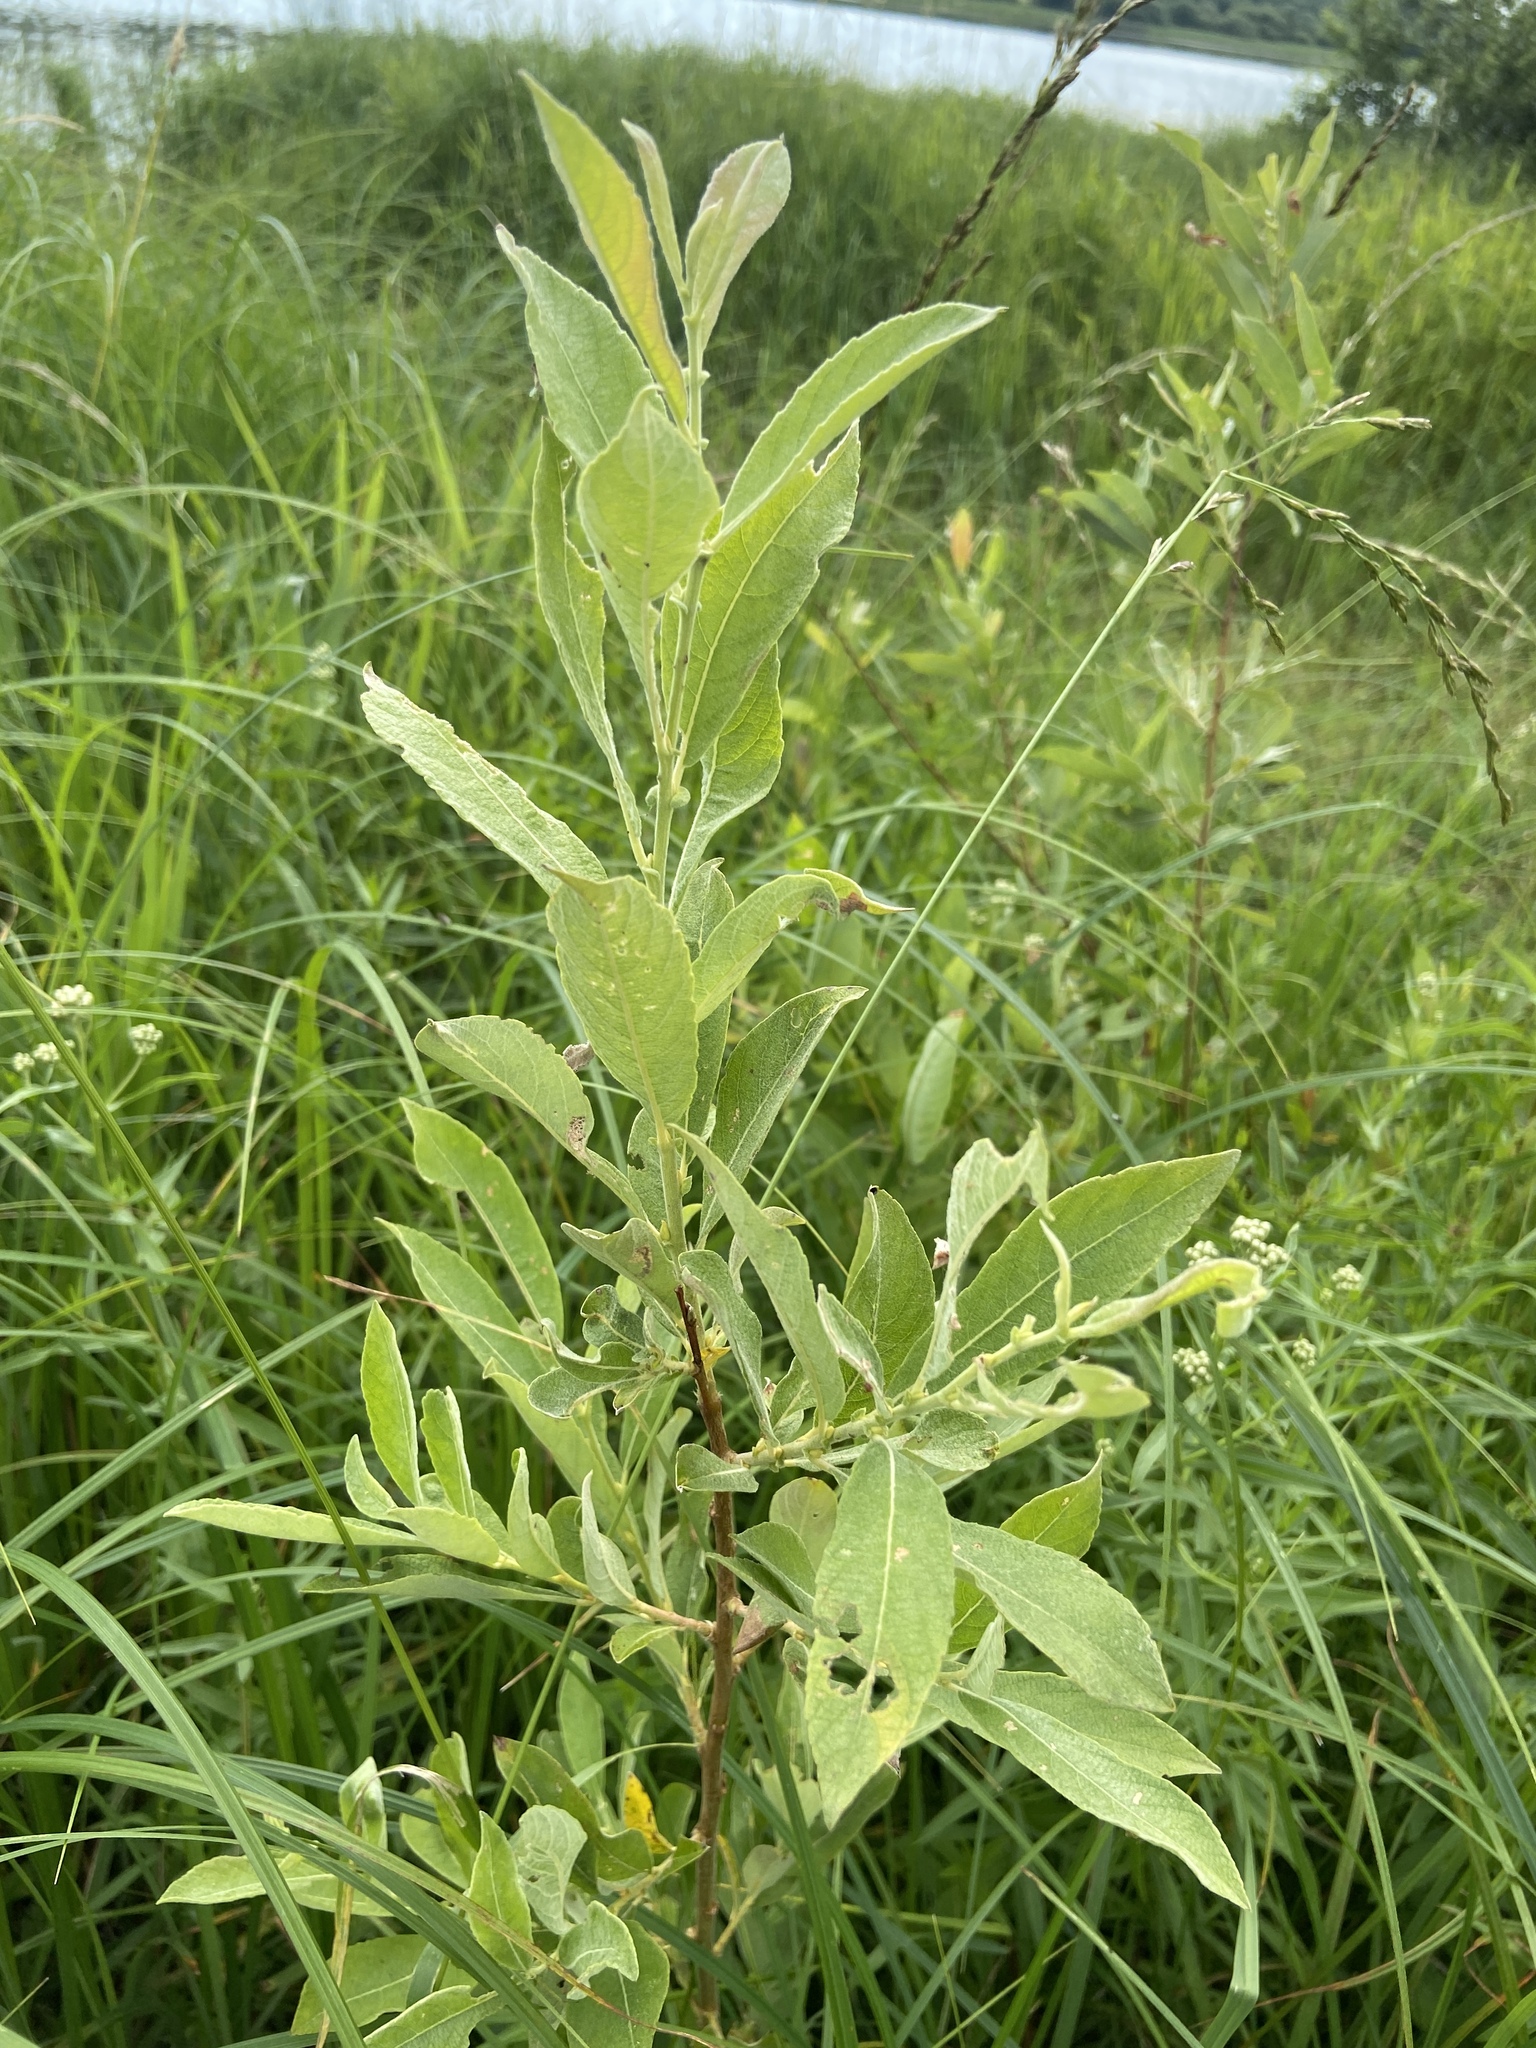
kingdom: Plantae
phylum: Tracheophyta
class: Magnoliopsida
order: Malpighiales
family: Salicaceae
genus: Salix
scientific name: Salix cinerea
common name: Common sallow
